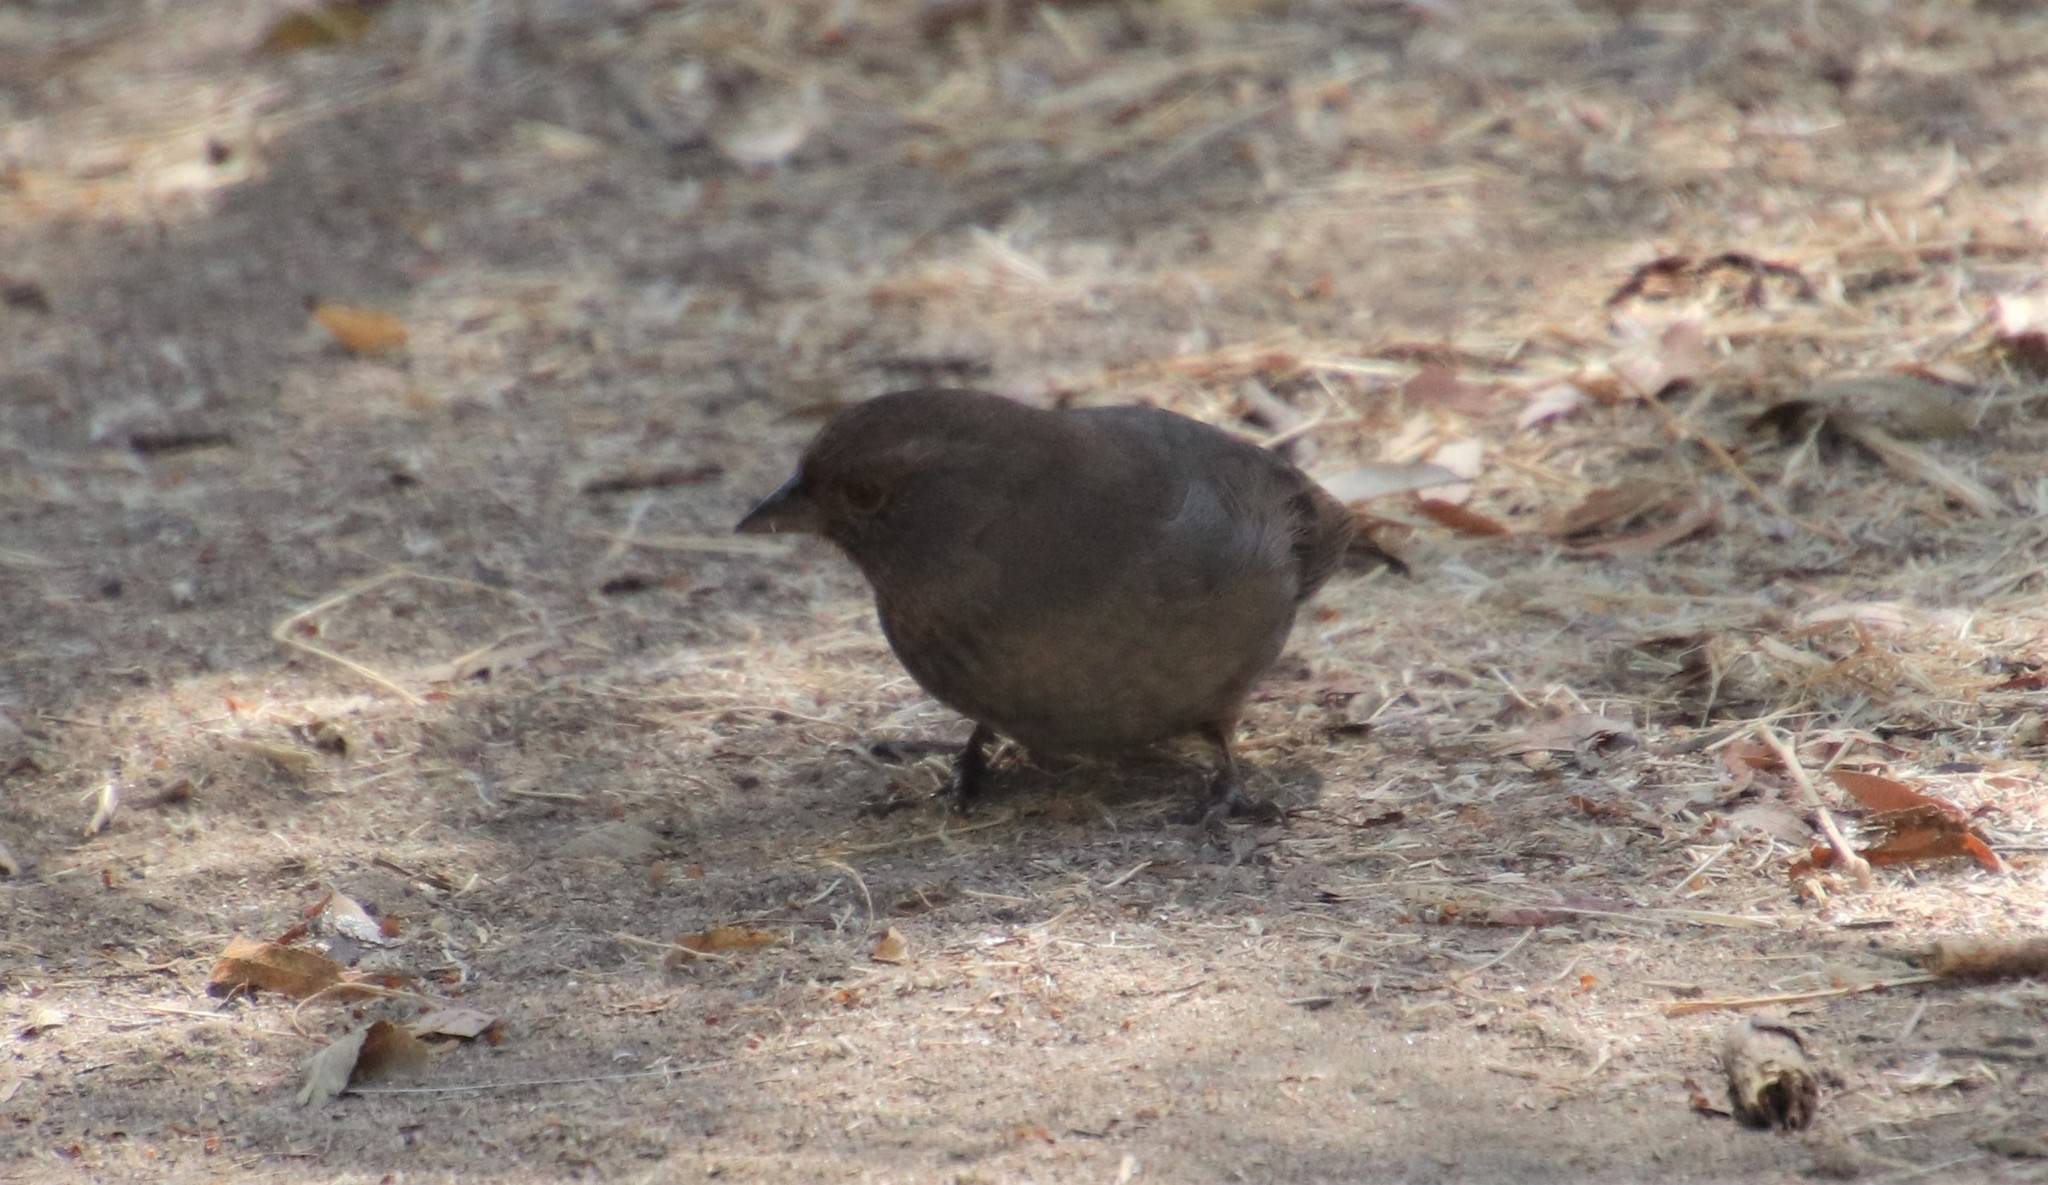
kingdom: Animalia
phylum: Chordata
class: Aves
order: Passeriformes
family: Passerellidae
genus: Melozone
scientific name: Melozone crissalis
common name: California towhee
